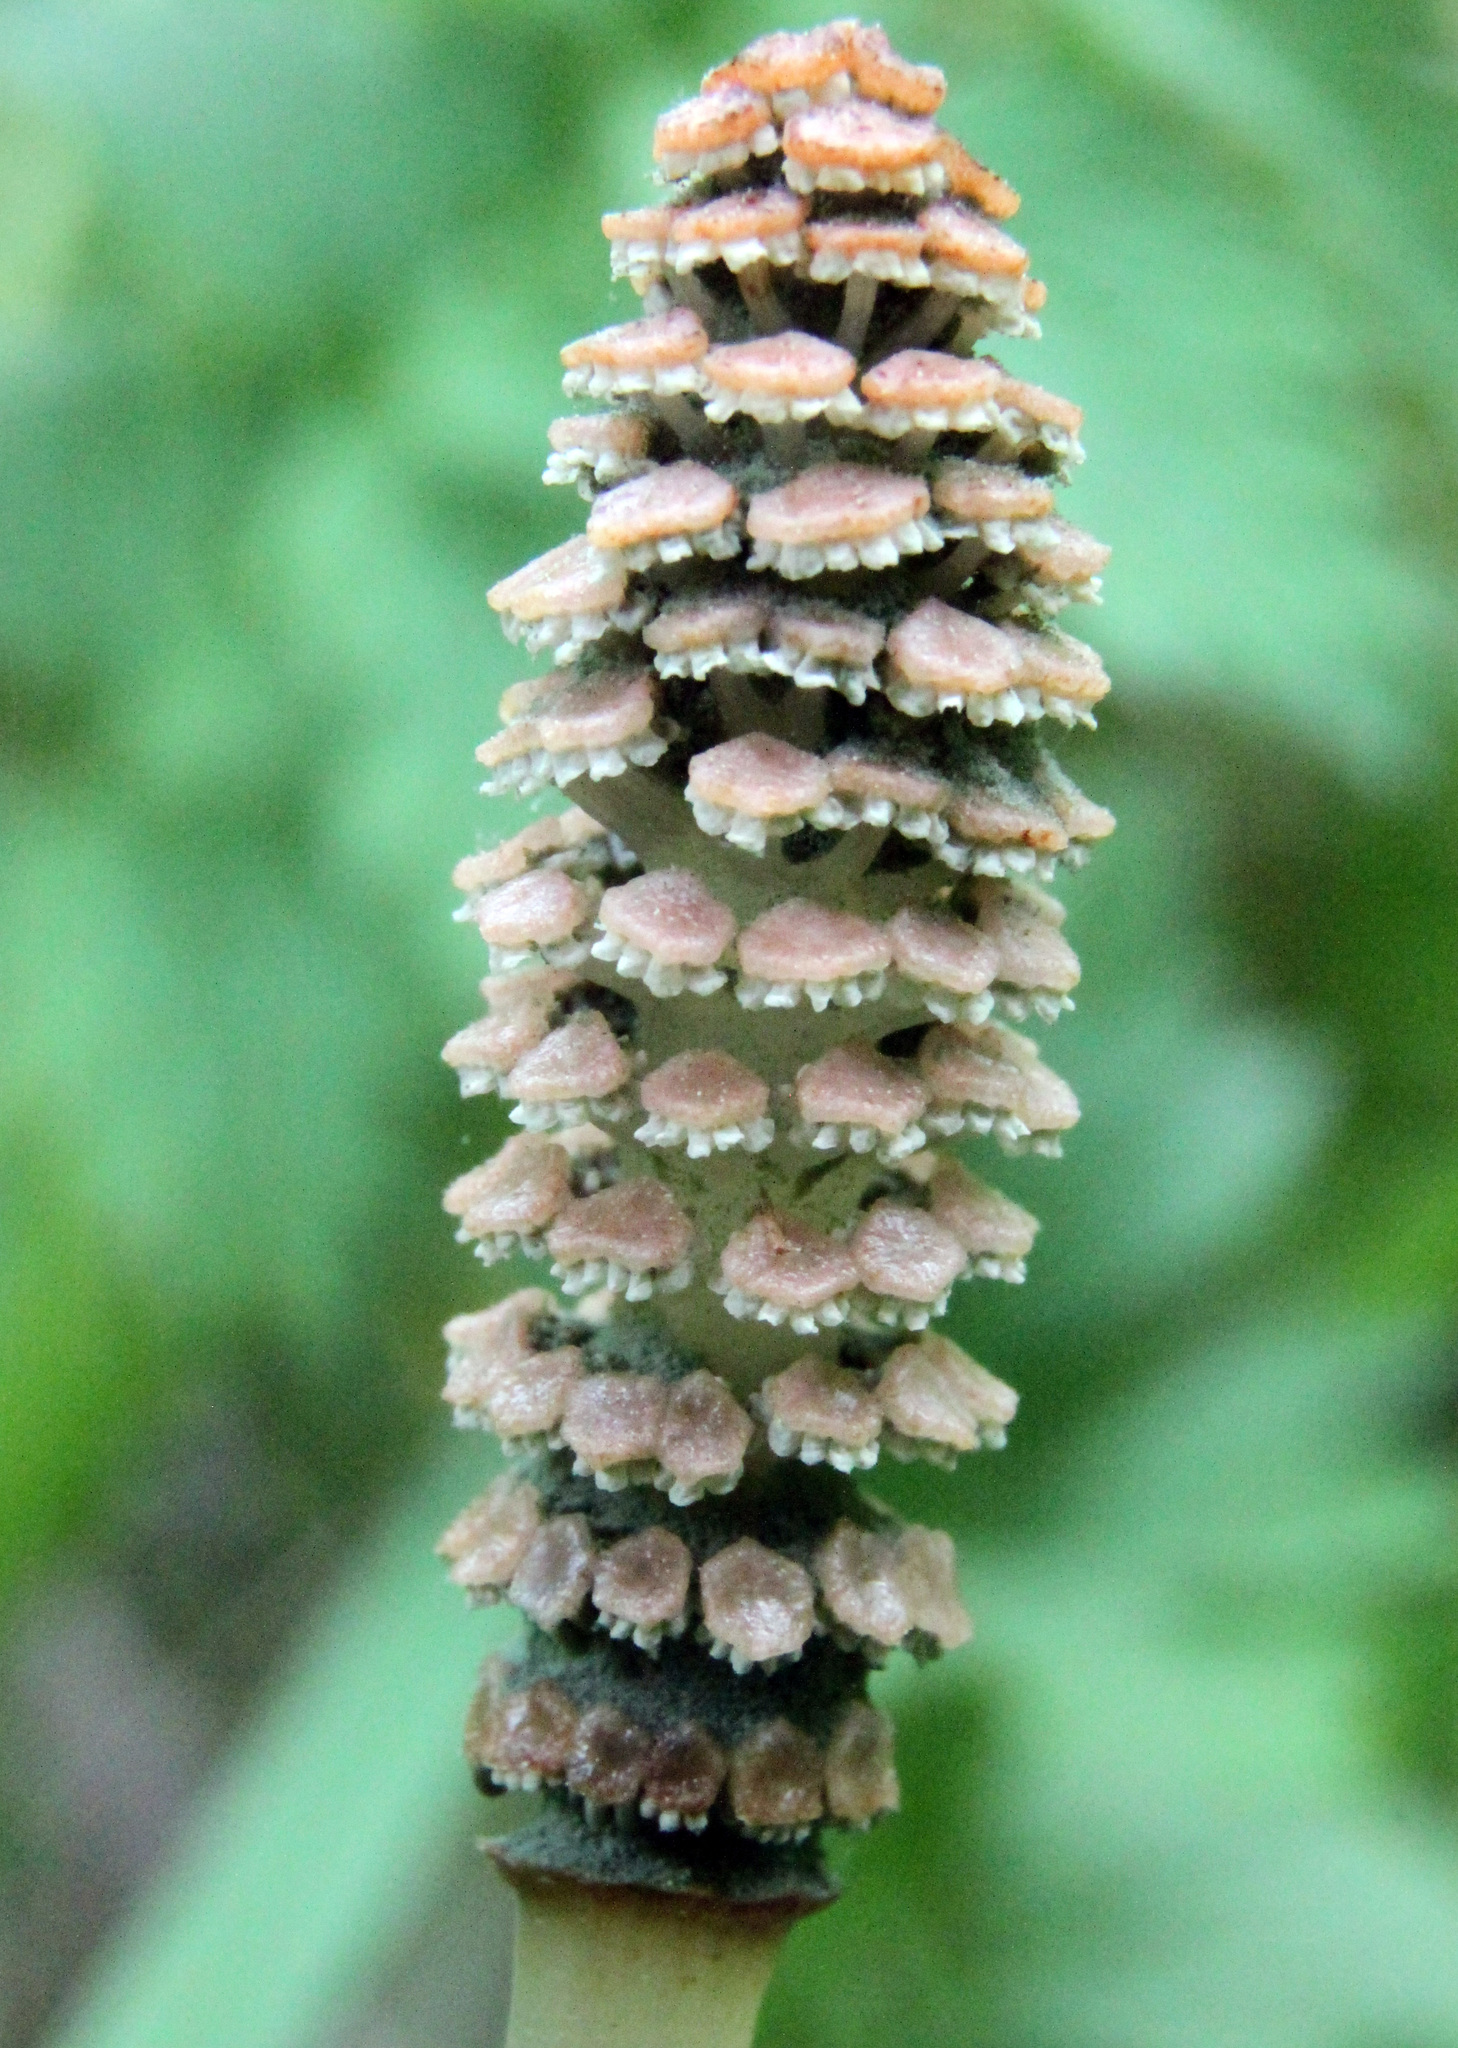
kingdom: Plantae
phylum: Tracheophyta
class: Polypodiopsida
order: Equisetales
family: Equisetaceae
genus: Equisetum
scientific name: Equisetum arvense
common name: Field horsetail
